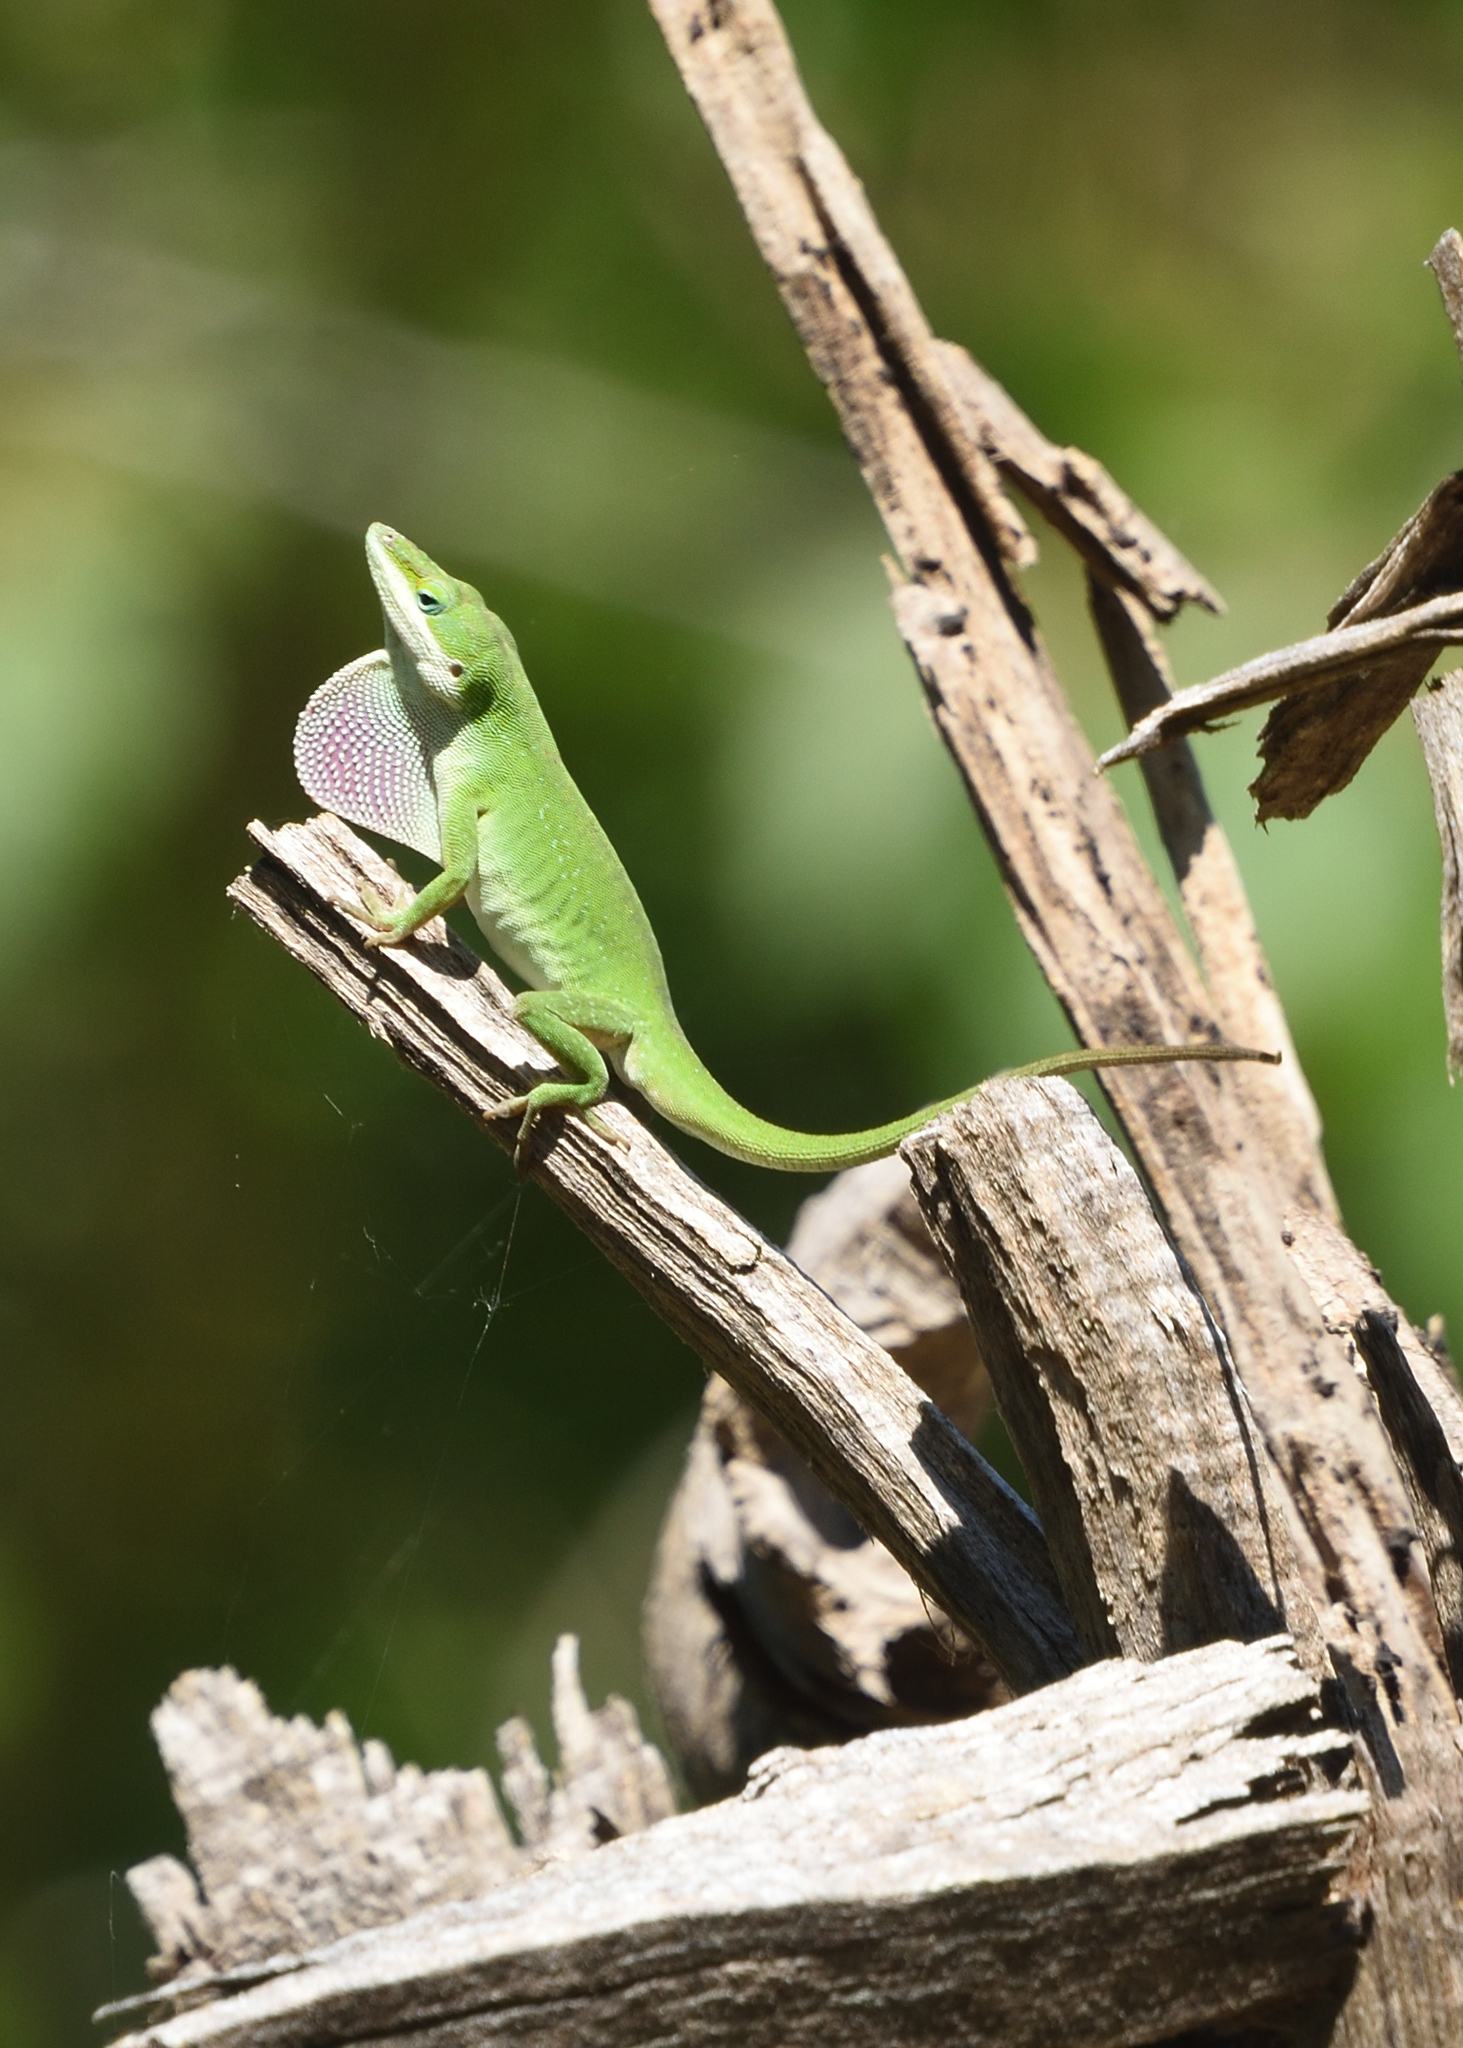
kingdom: Animalia
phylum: Chordata
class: Squamata
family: Dactyloidae
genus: Anolis
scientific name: Anolis carolinensis
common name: Green anole
